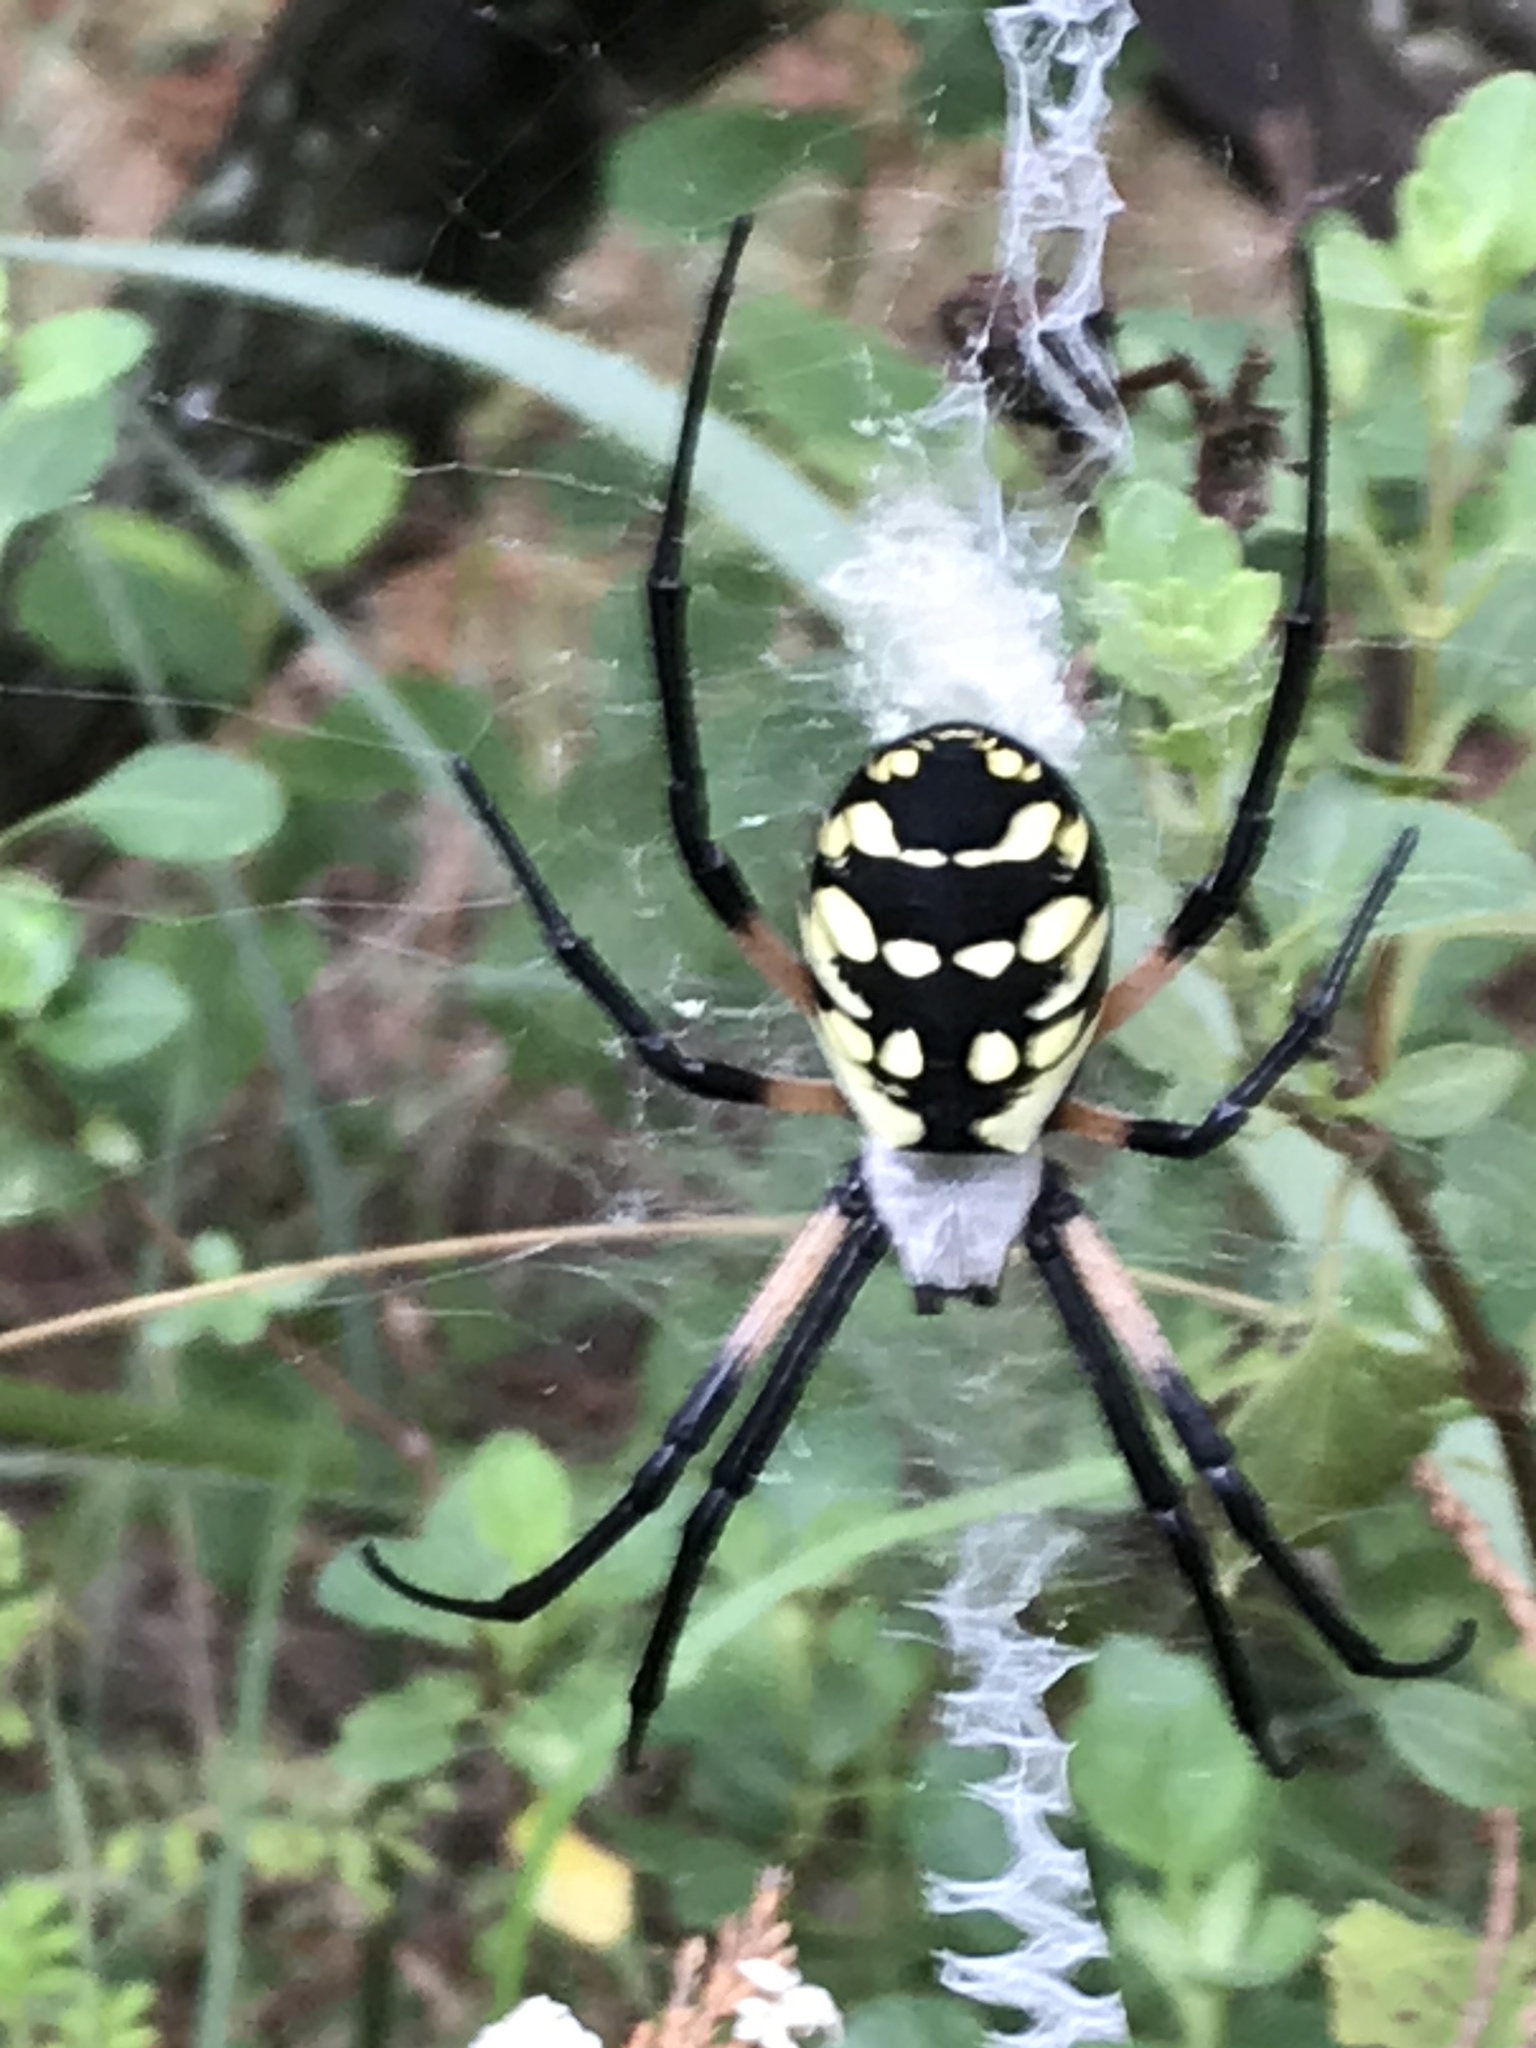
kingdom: Animalia
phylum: Arthropoda
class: Arachnida
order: Araneae
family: Araneidae
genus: Argiope
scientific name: Argiope aurantia
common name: Orb weavers
